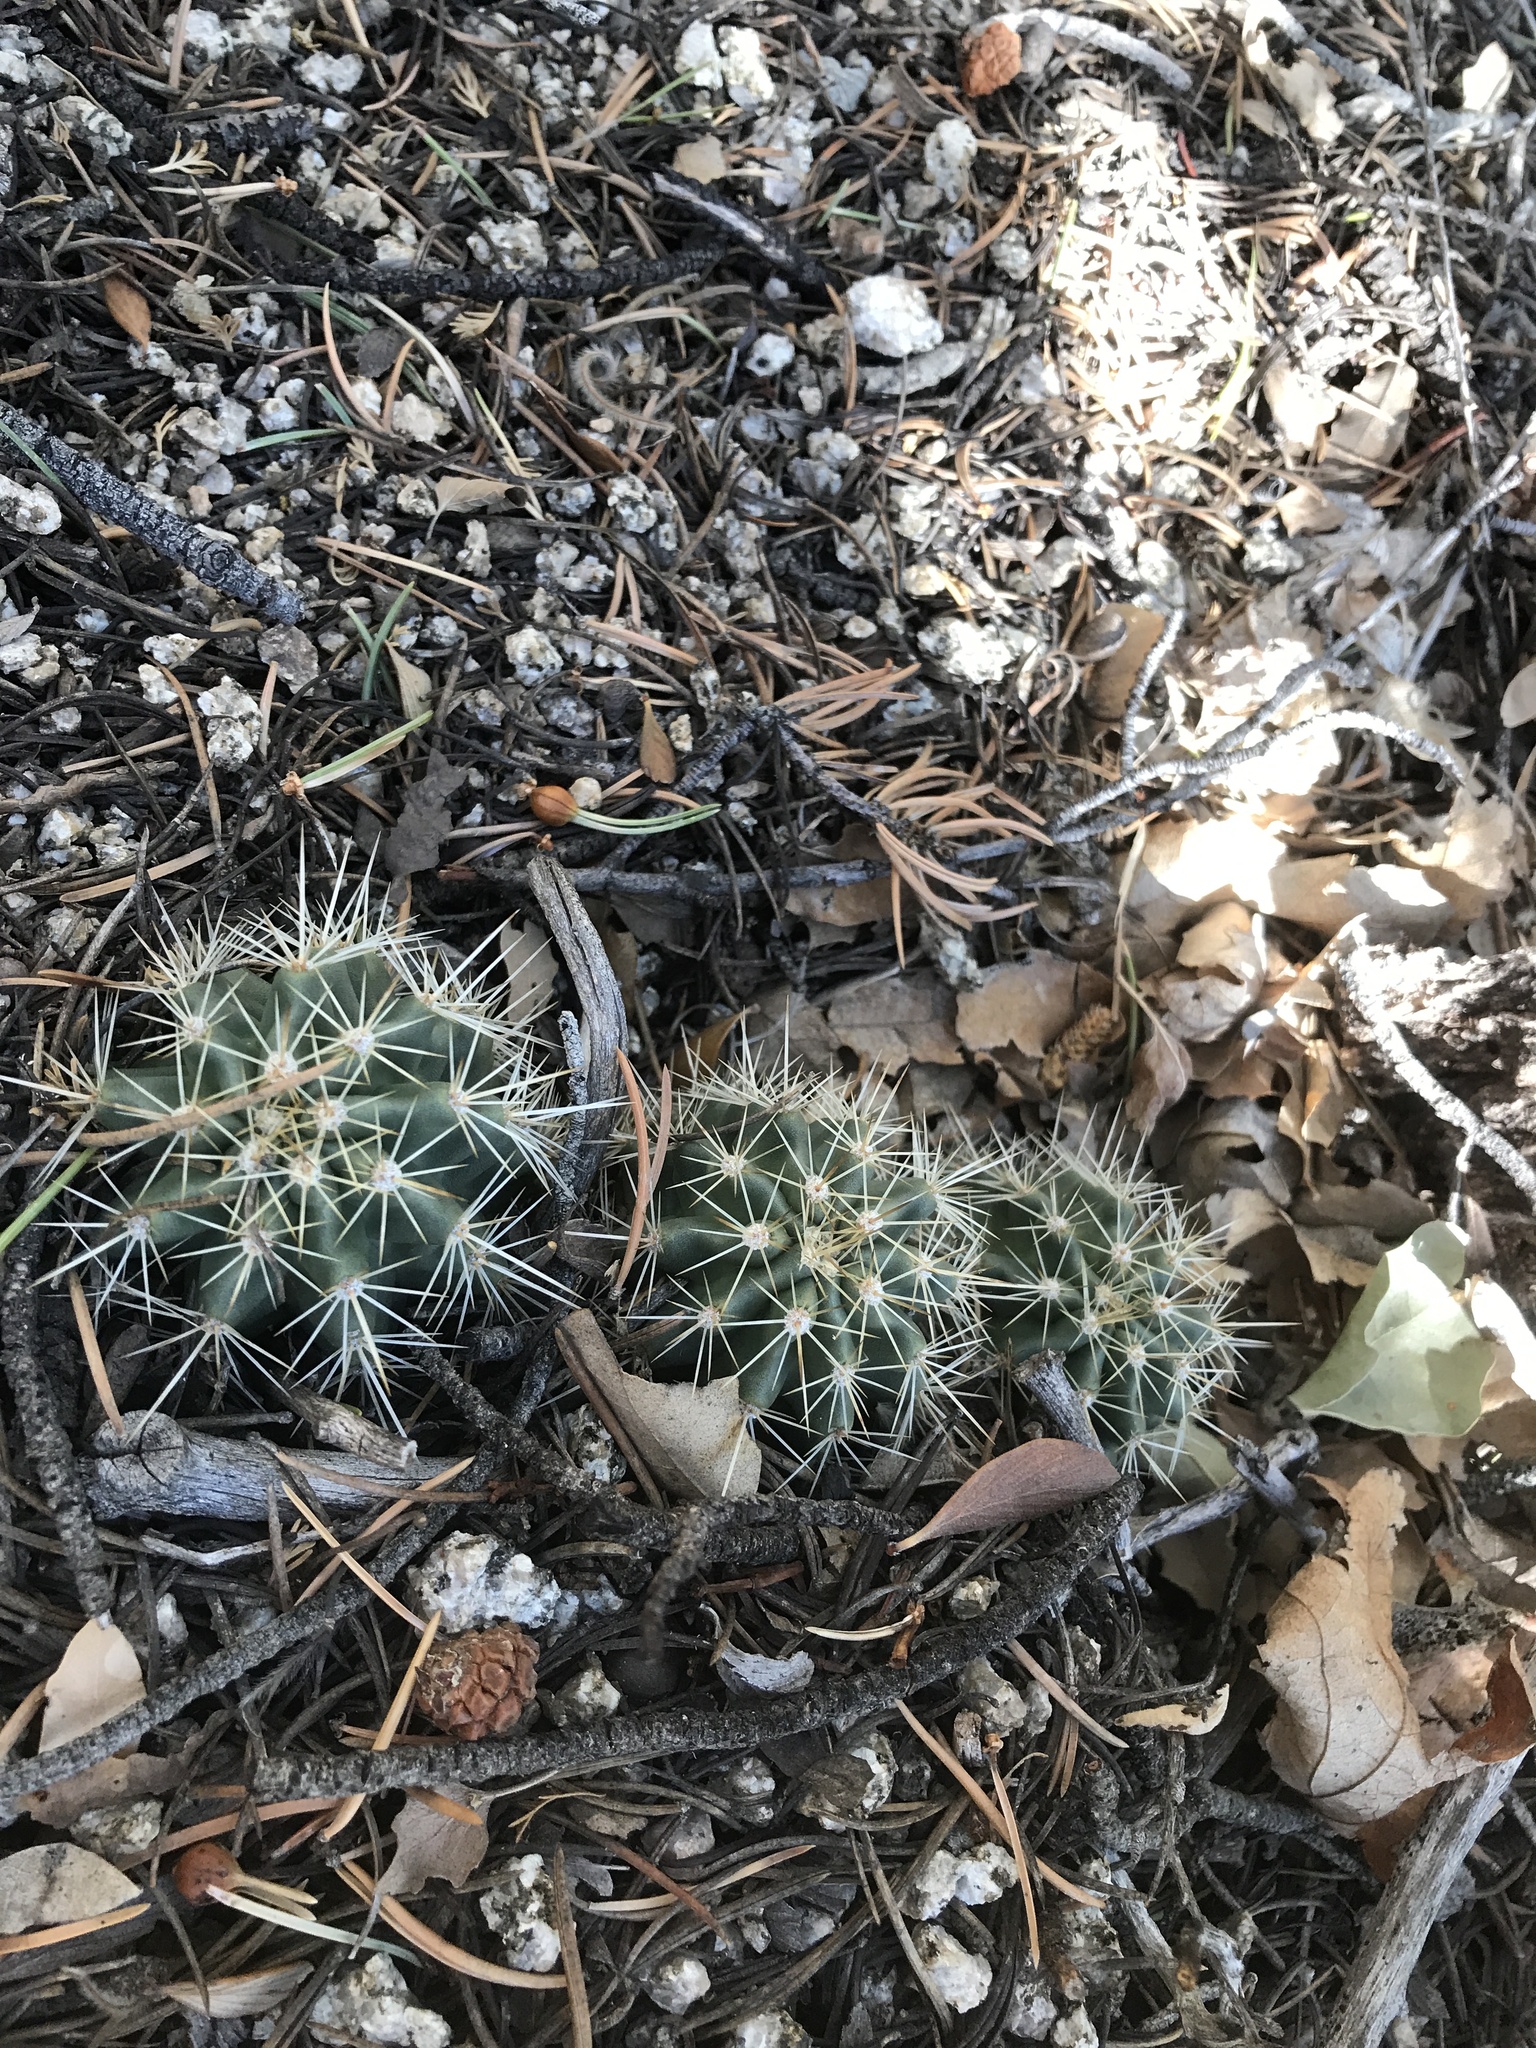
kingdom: Plantae
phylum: Tracheophyta
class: Magnoliopsida
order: Caryophyllales
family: Cactaceae
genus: Echinocereus
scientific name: Echinocereus coccineus
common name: Scarlet hedgehog cactus
